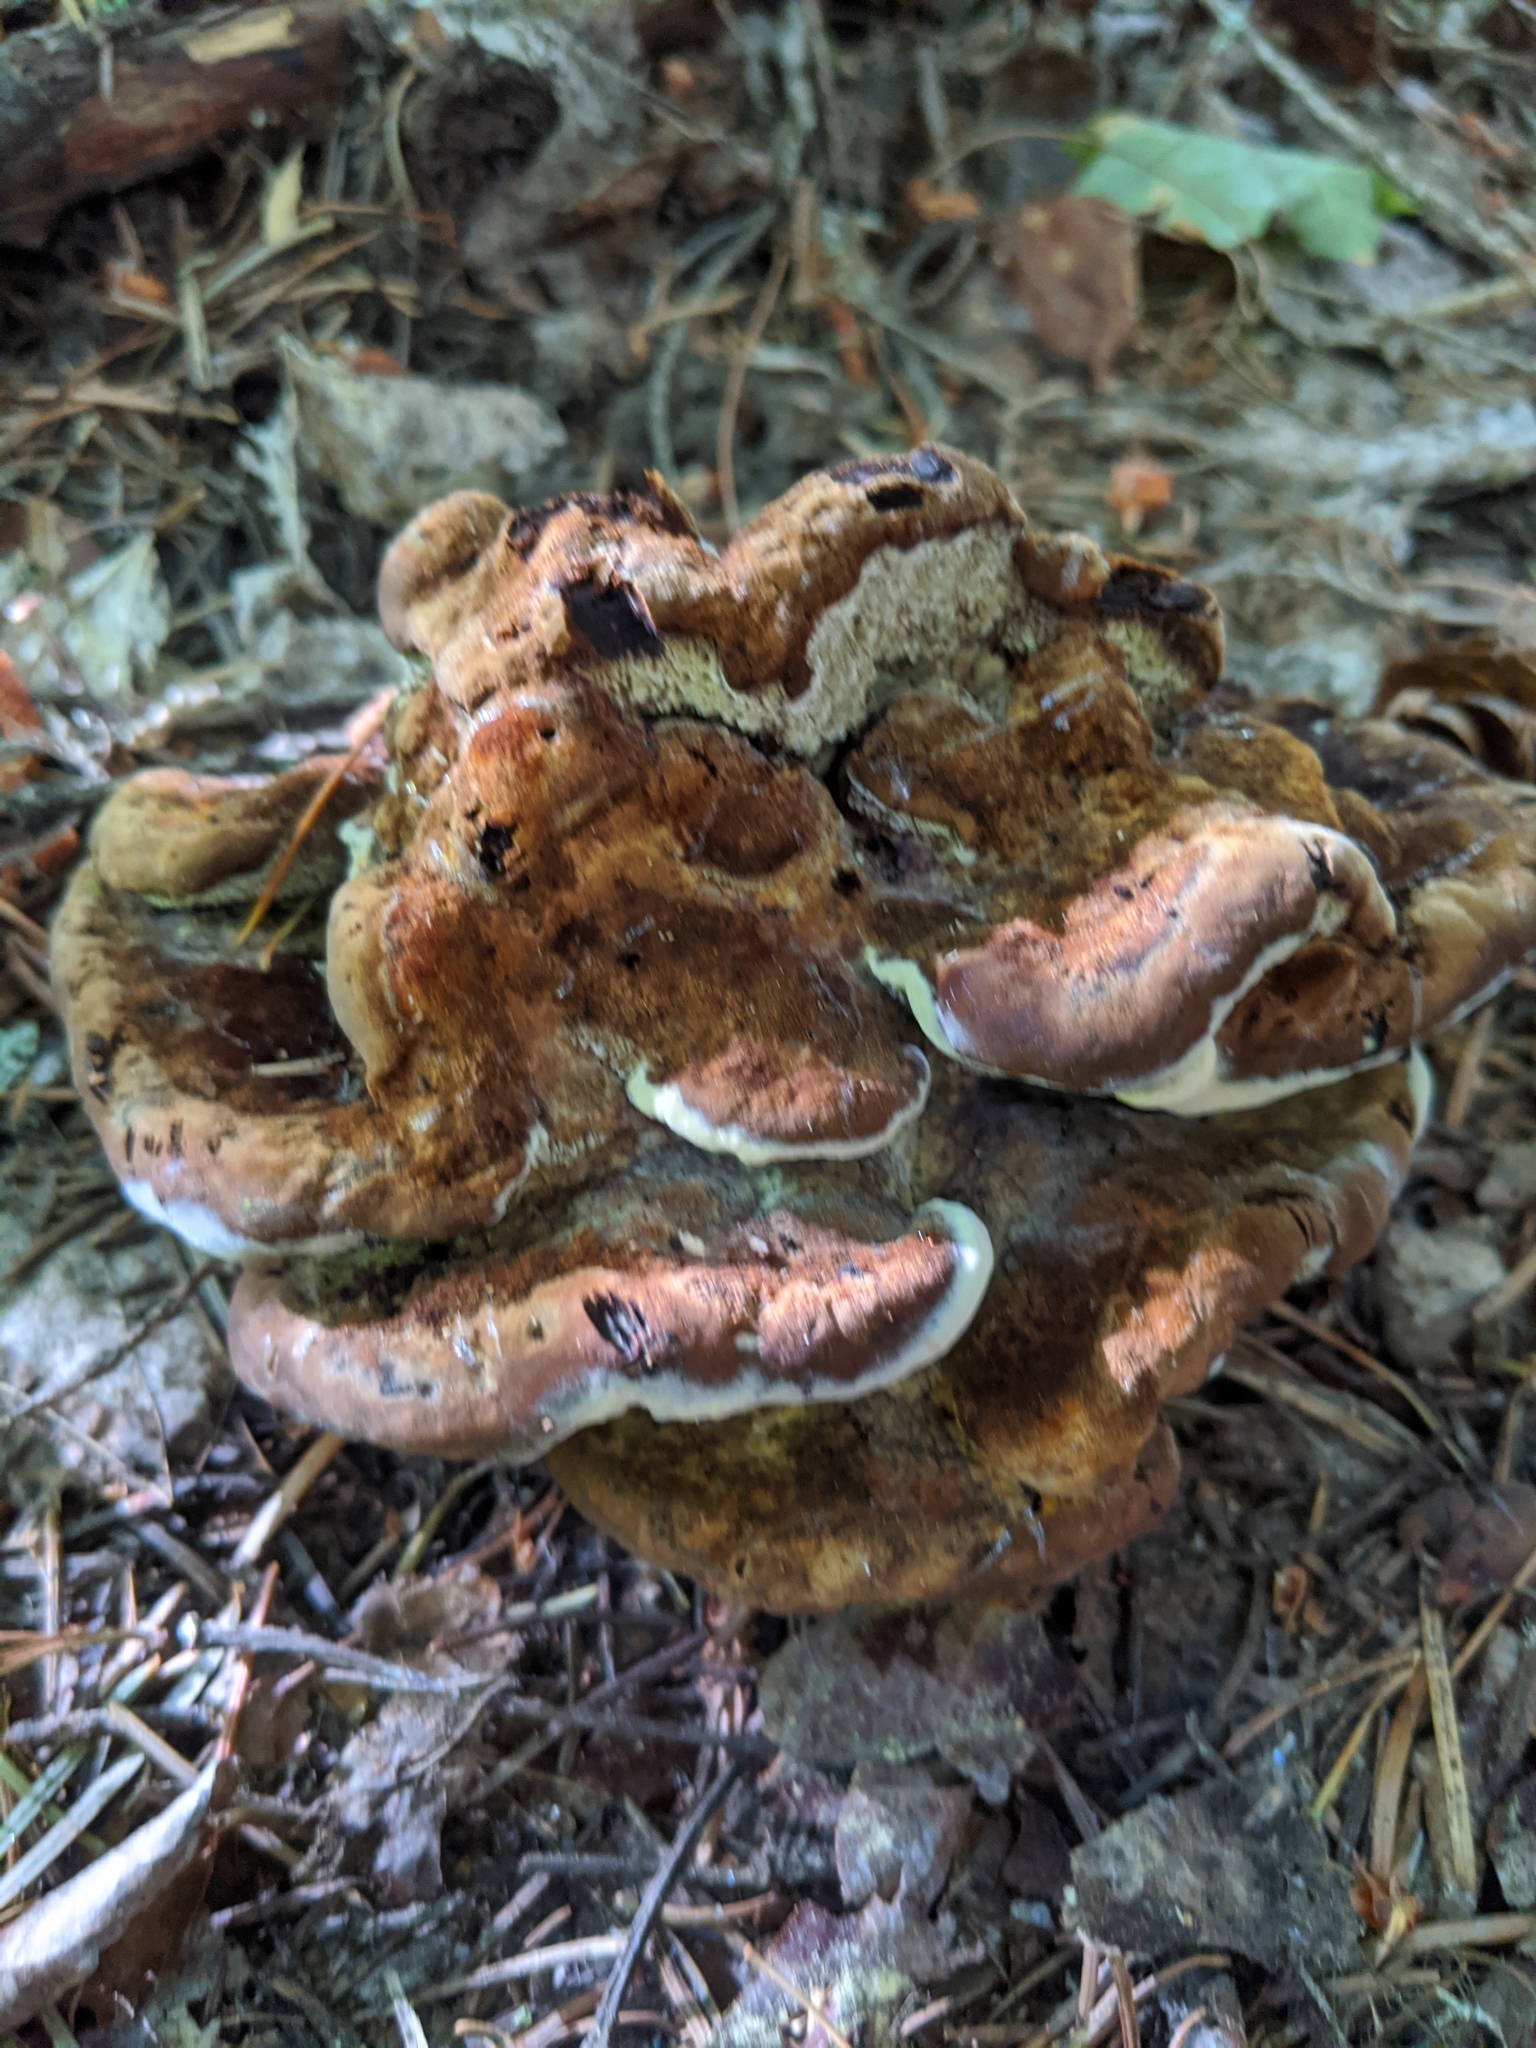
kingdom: Fungi
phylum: Basidiomycota
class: Agaricomycetes
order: Polyporales
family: Laetiporaceae
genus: Phaeolus
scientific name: Phaeolus schweinitzii
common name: Dyer's mazegill
